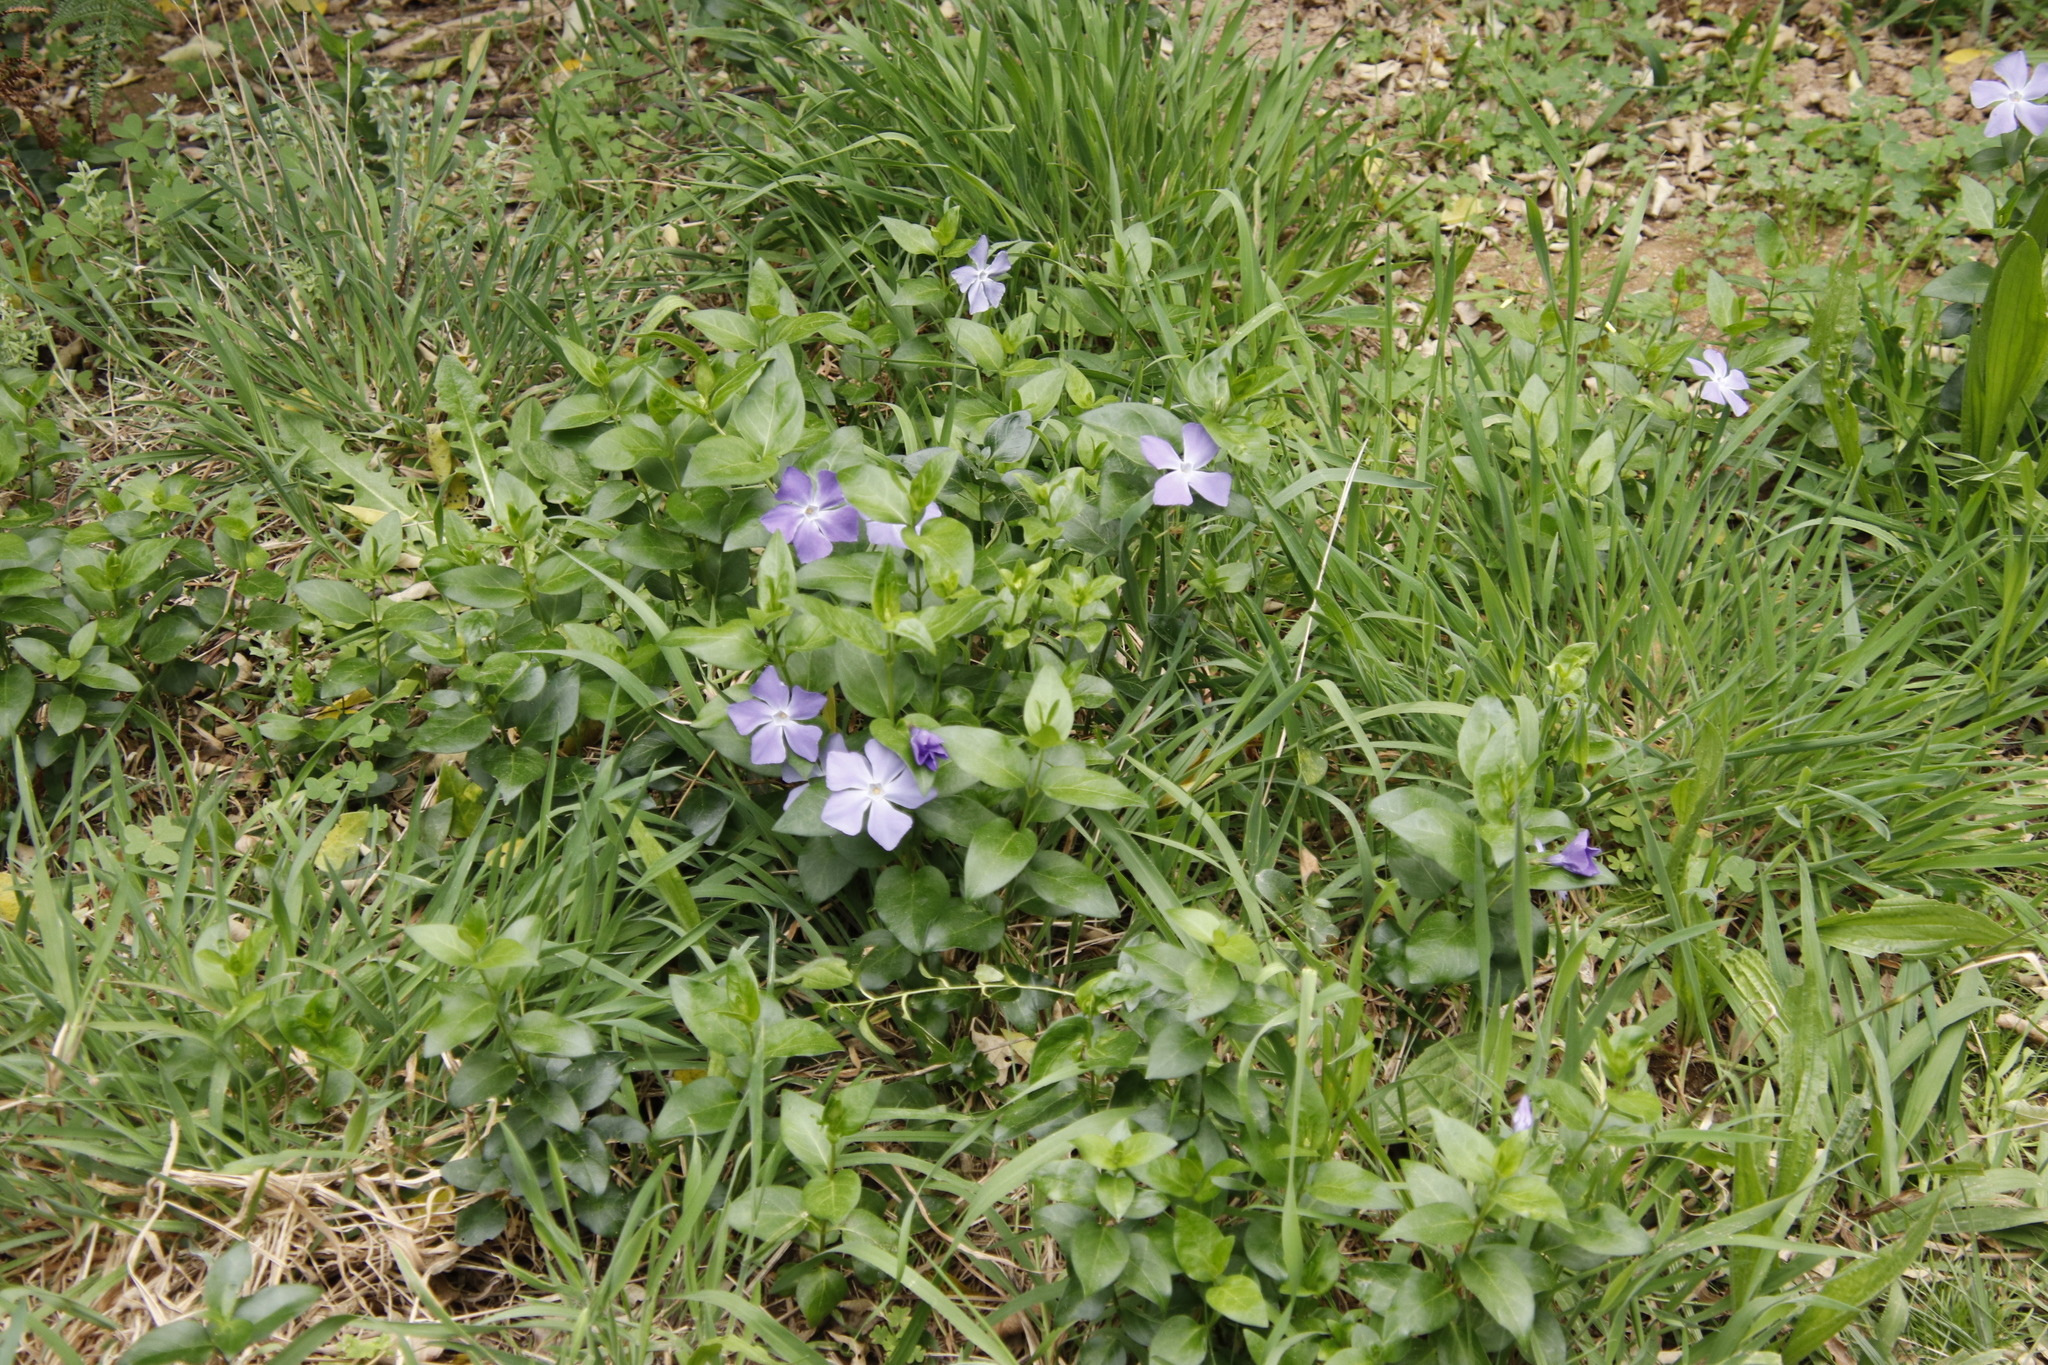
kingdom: Plantae
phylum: Tracheophyta
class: Magnoliopsida
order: Gentianales
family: Apocynaceae
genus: Vinca
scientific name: Vinca major
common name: Greater periwinkle
